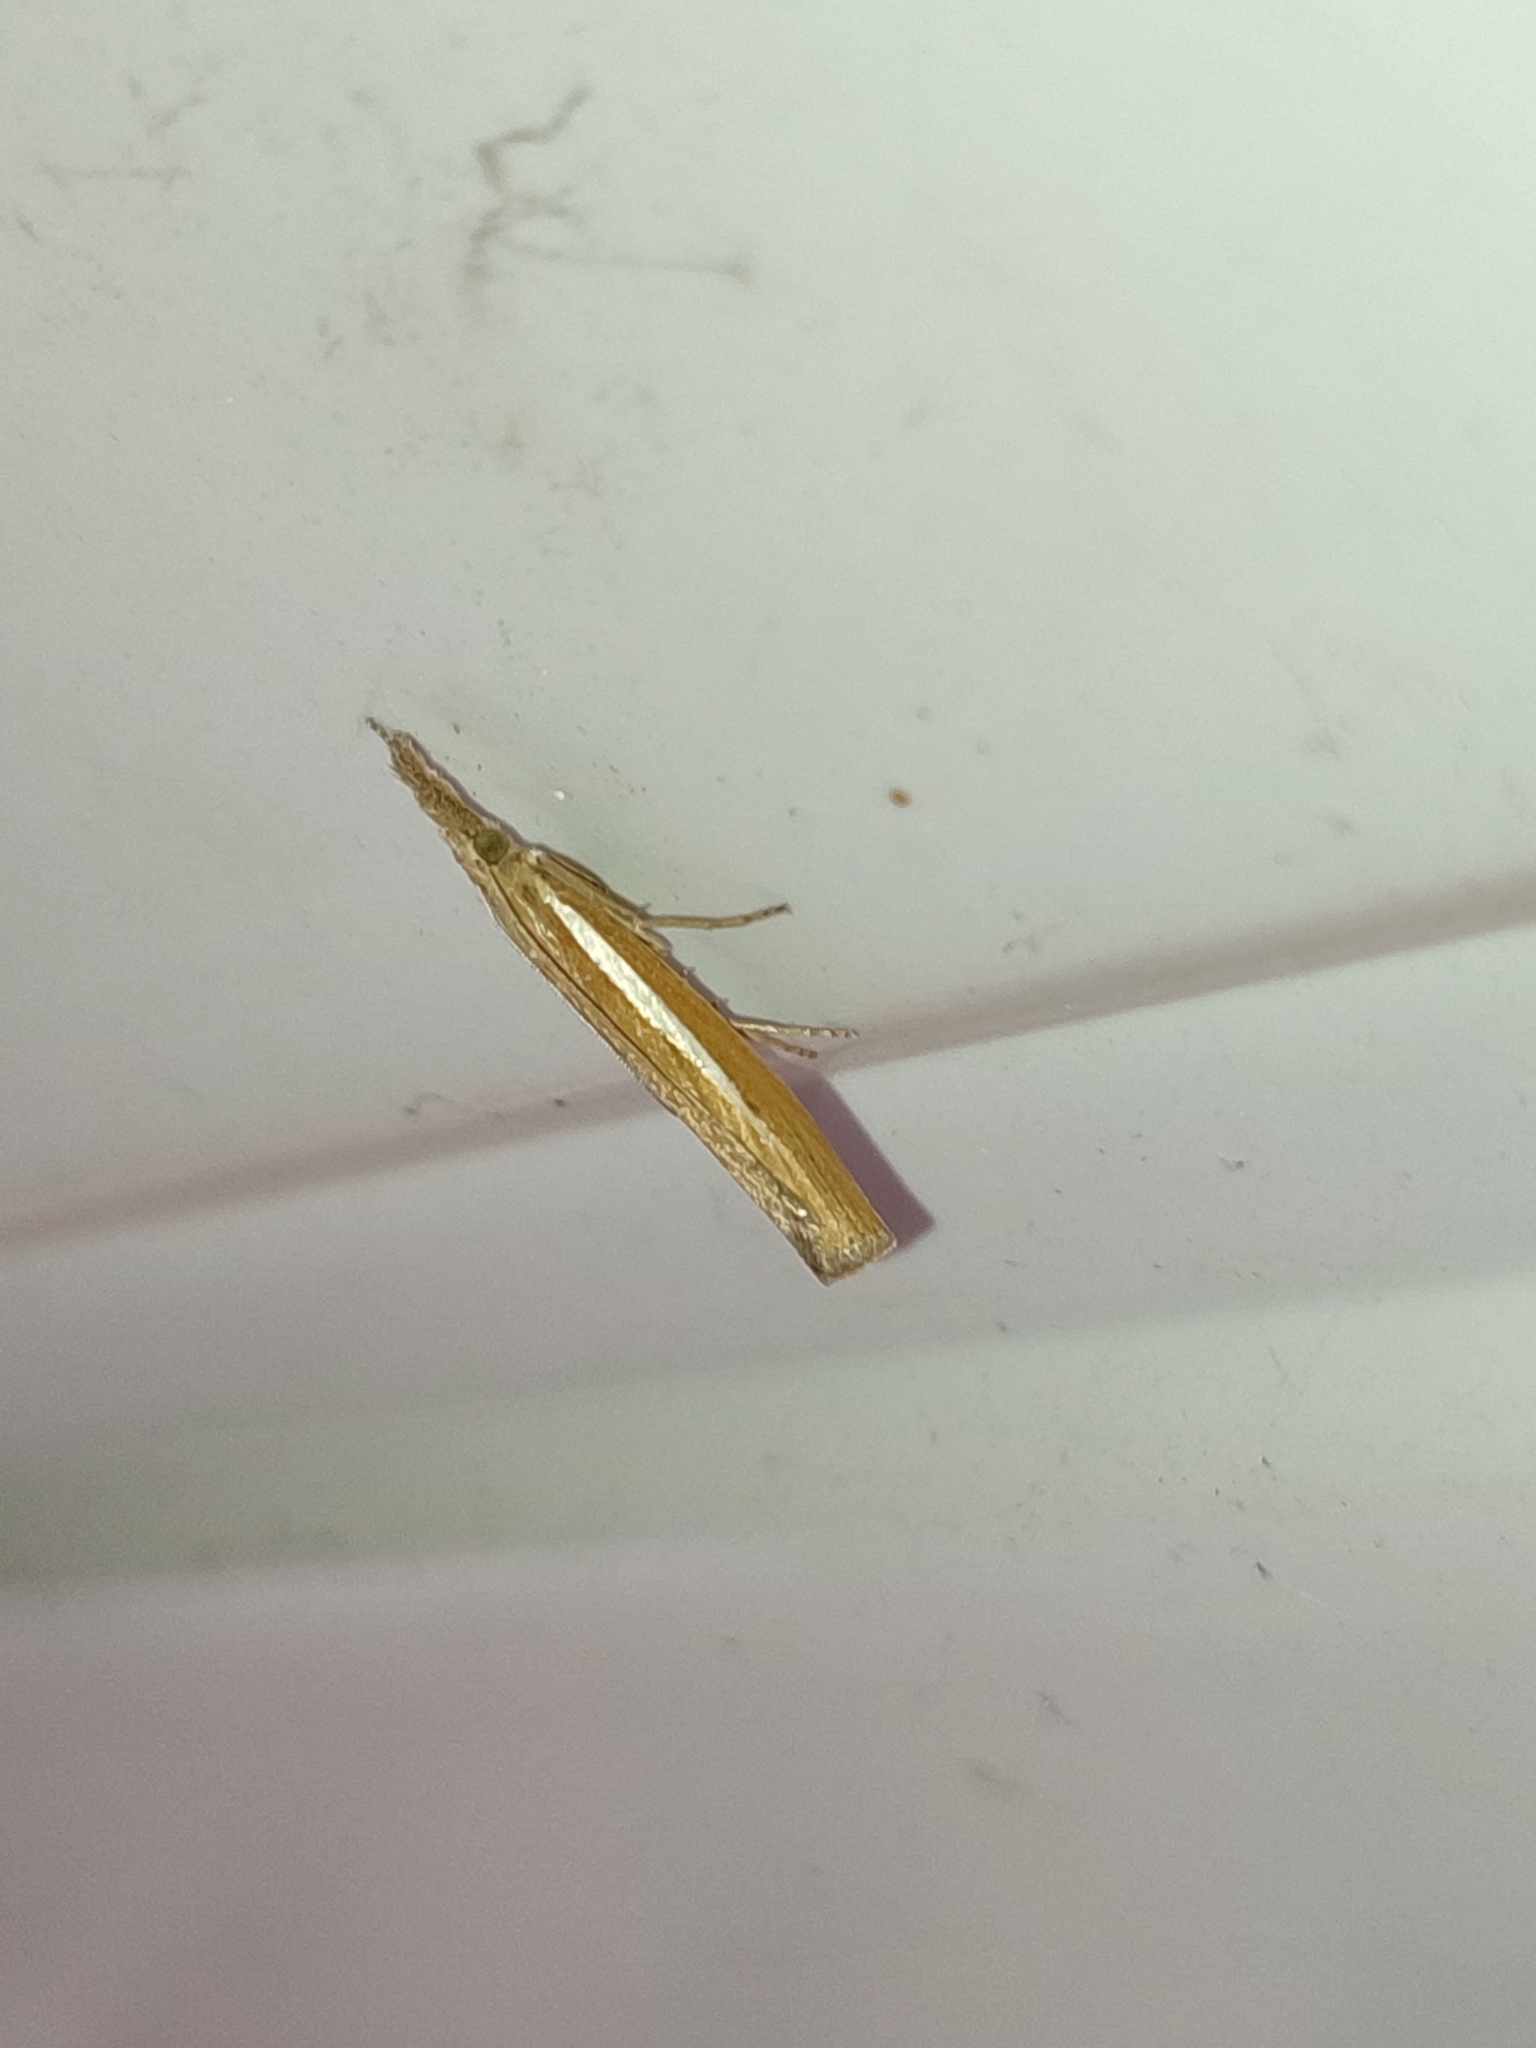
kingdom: Animalia
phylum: Arthropoda
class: Insecta
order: Lepidoptera
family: Crambidae
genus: Agriphila
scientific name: Agriphila tristellus
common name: Common grass-veneer
